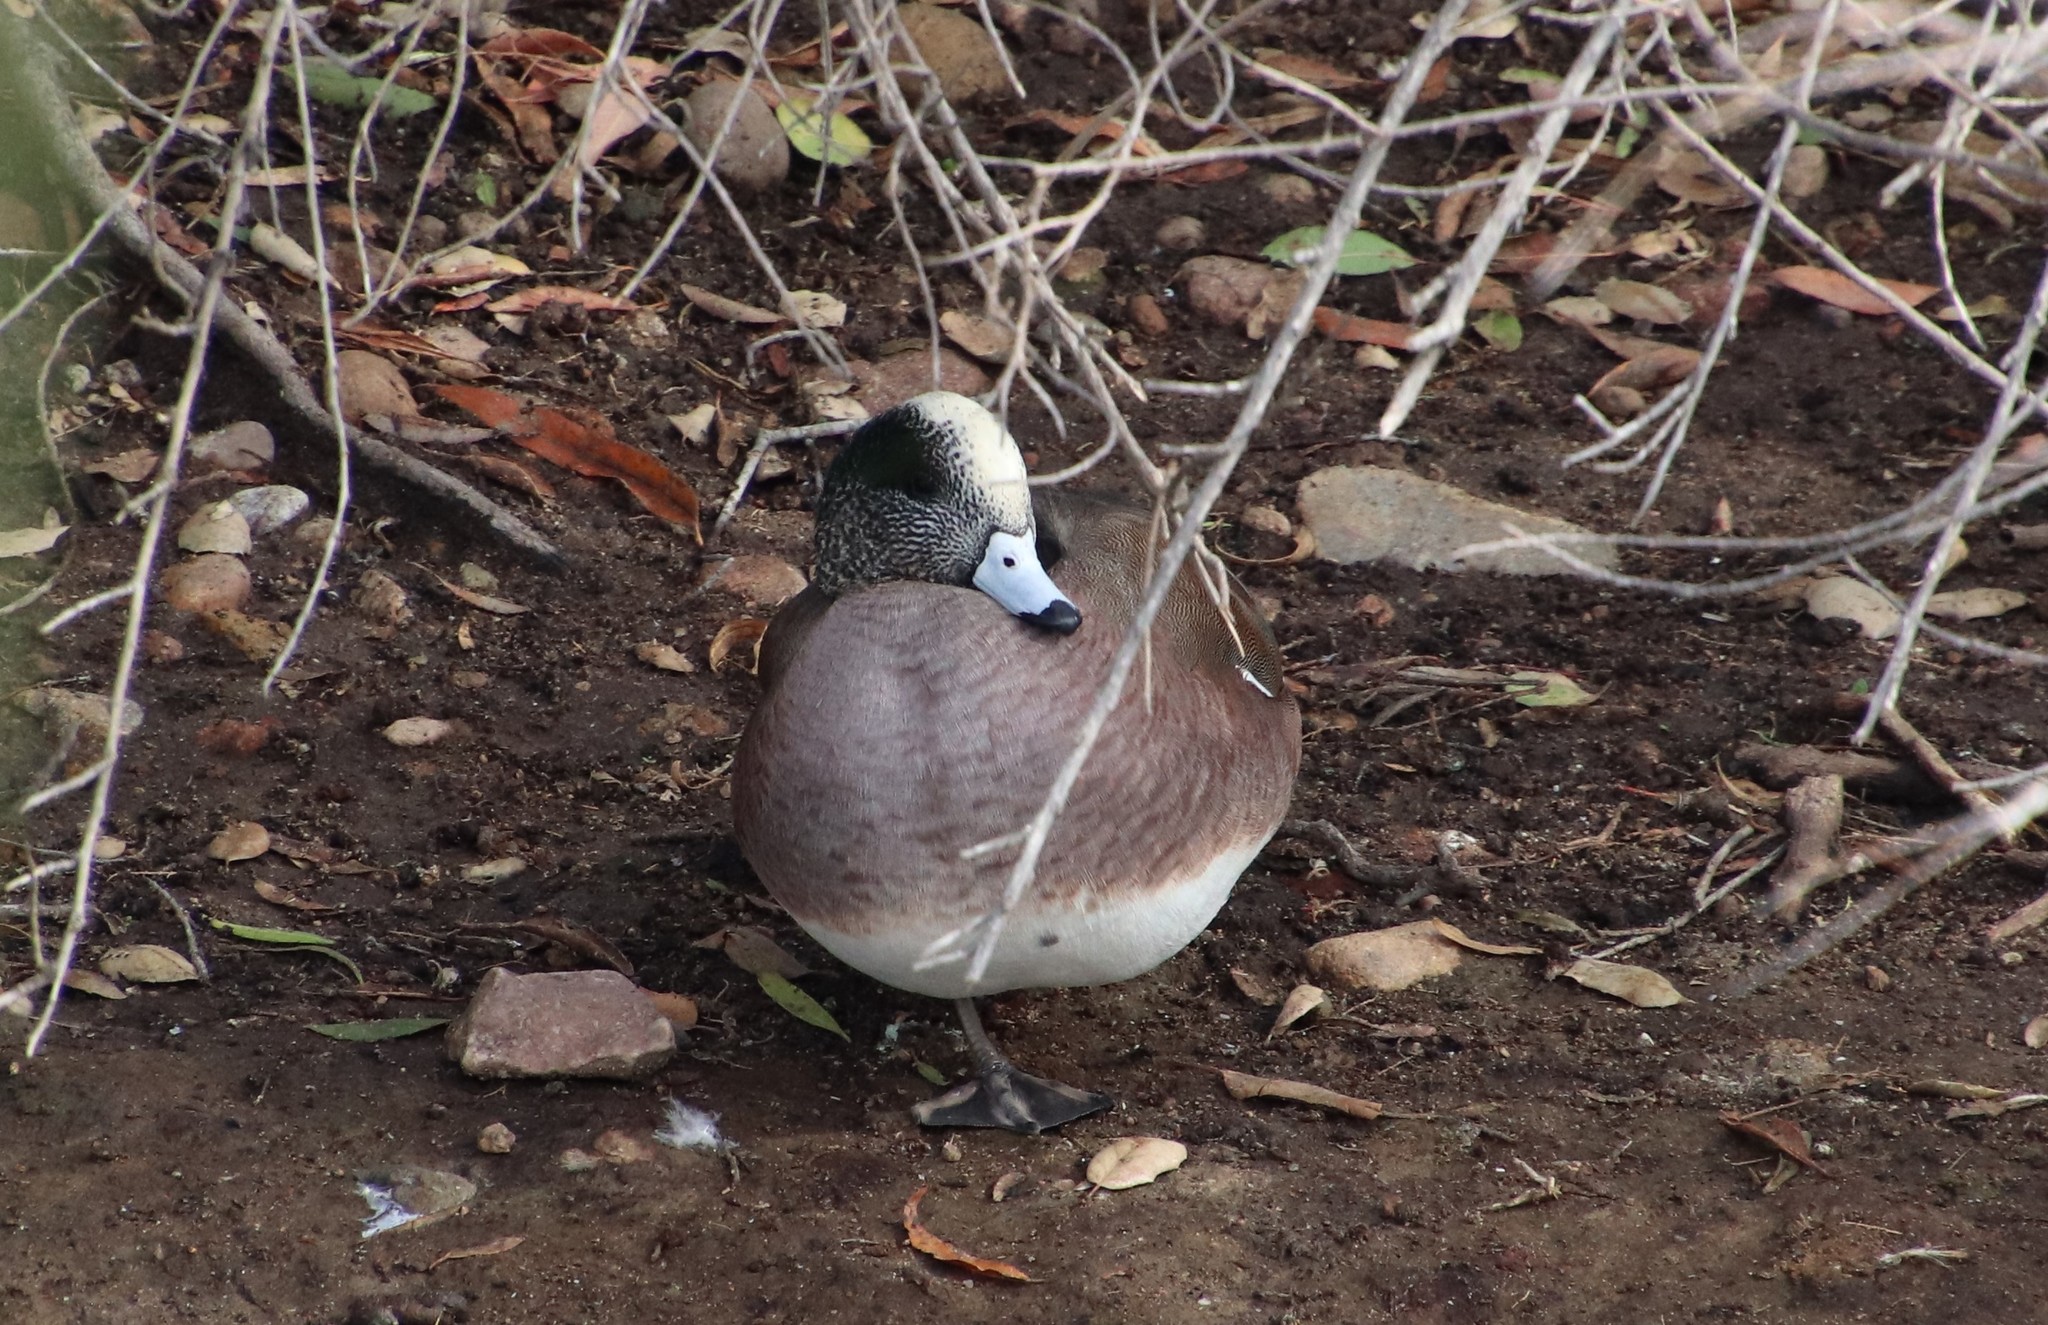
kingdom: Animalia
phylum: Chordata
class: Aves
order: Anseriformes
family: Anatidae
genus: Mareca
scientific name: Mareca americana
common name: American wigeon
